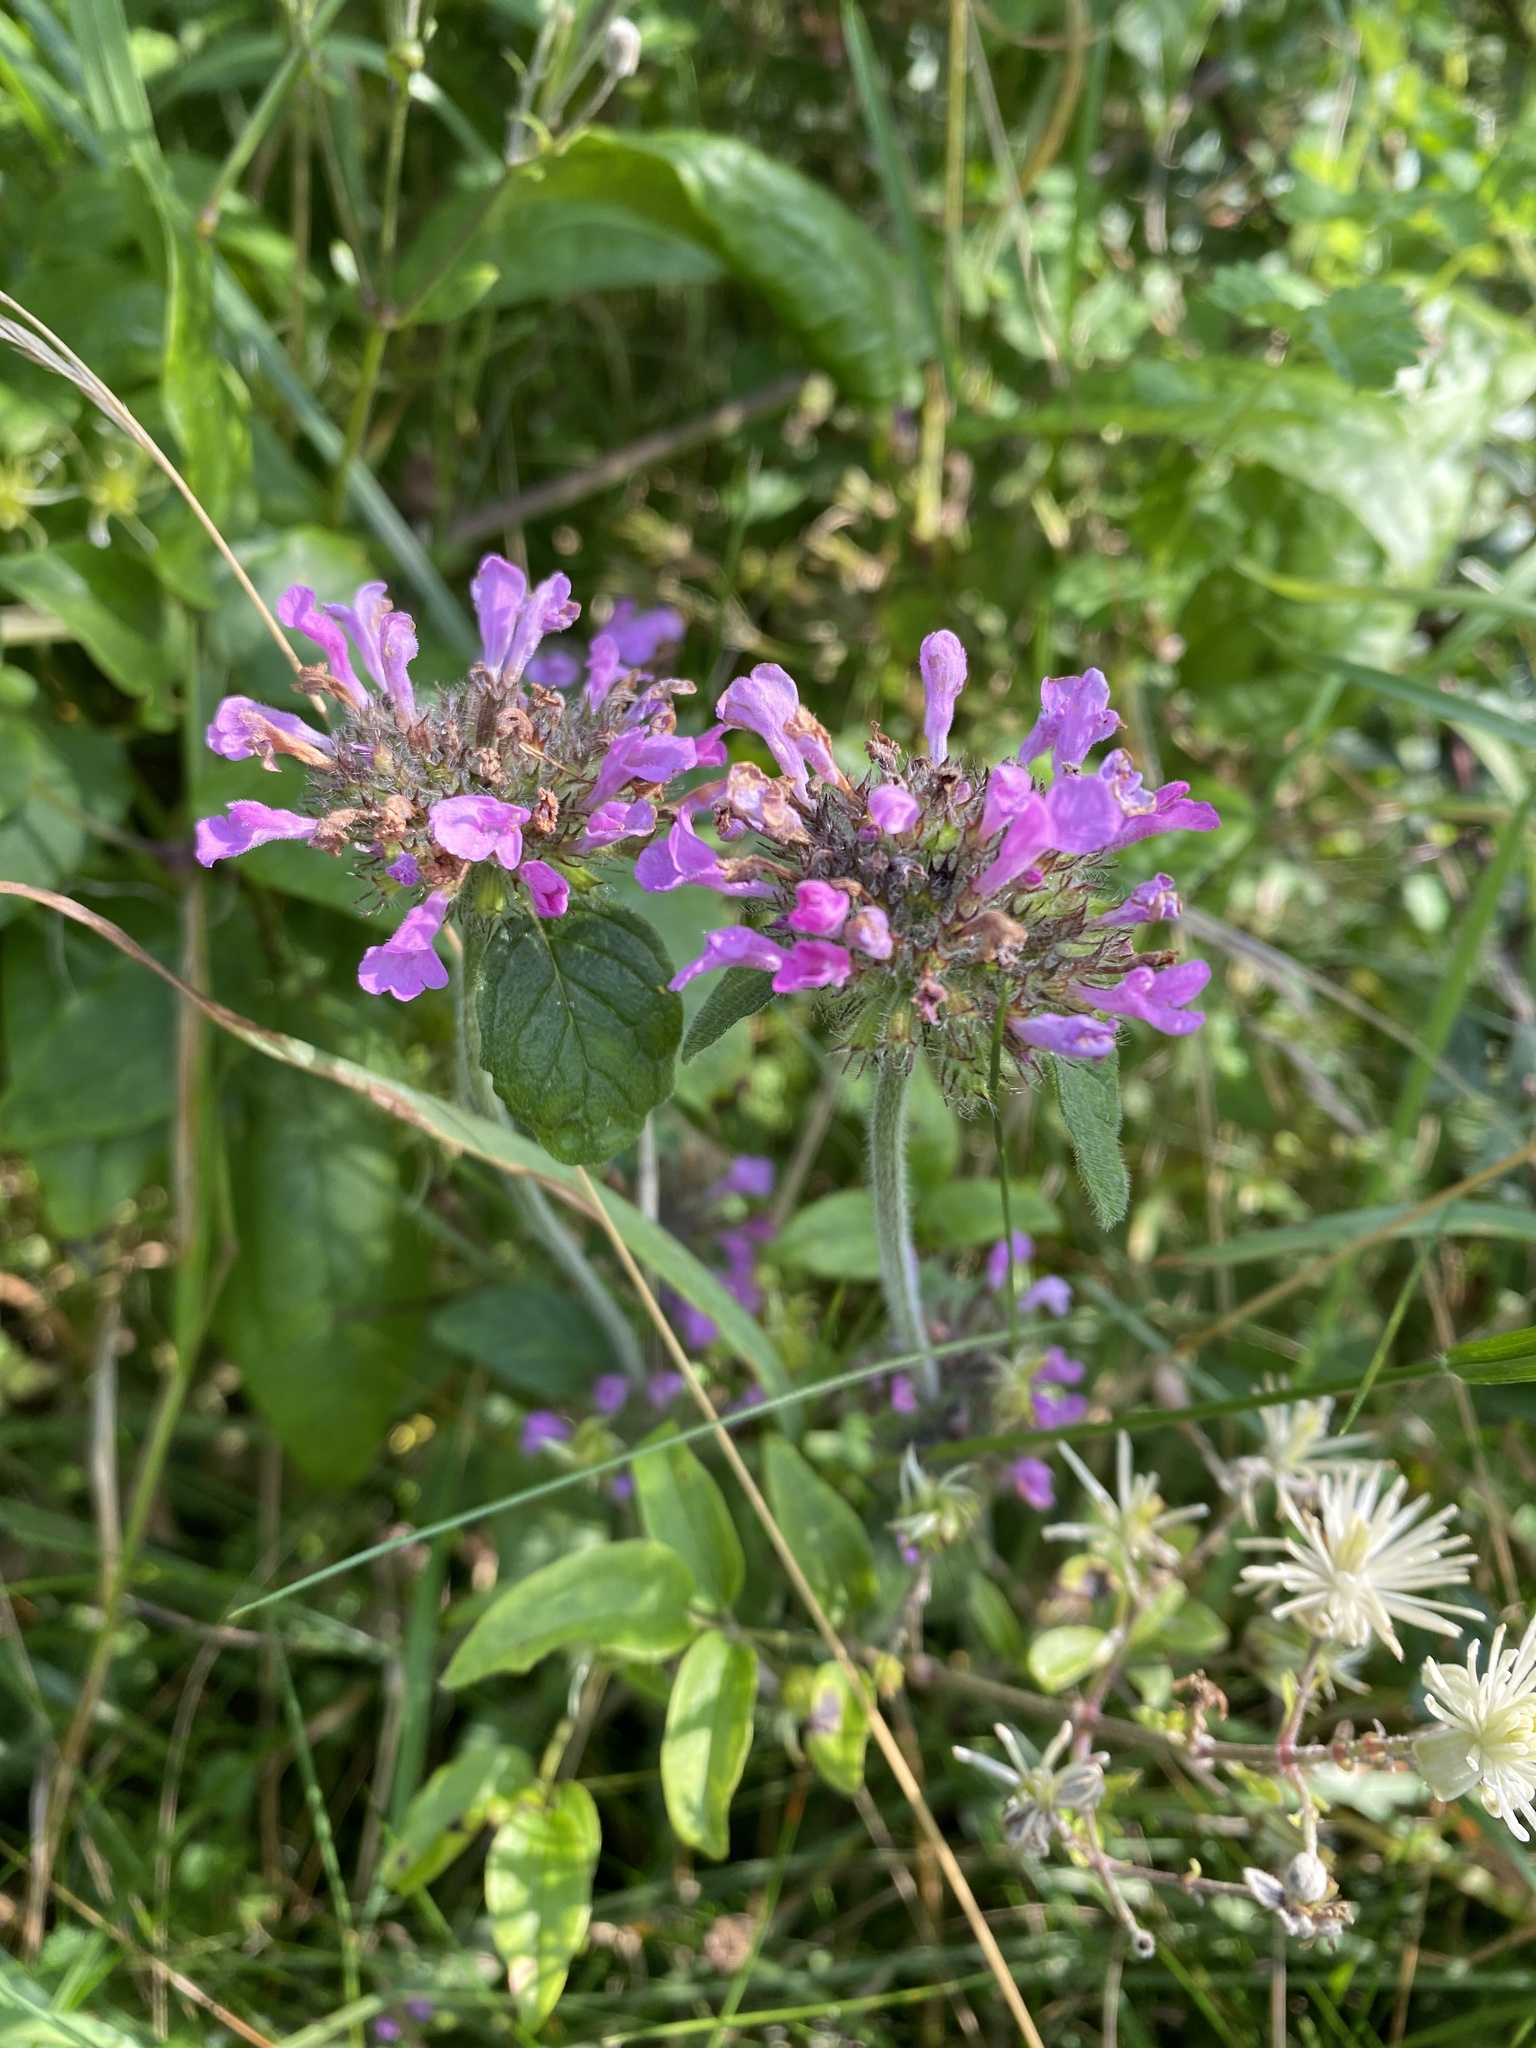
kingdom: Plantae
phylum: Tracheophyta
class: Magnoliopsida
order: Lamiales
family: Lamiaceae
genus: Clinopodium
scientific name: Clinopodium vulgare
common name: Wild basil
